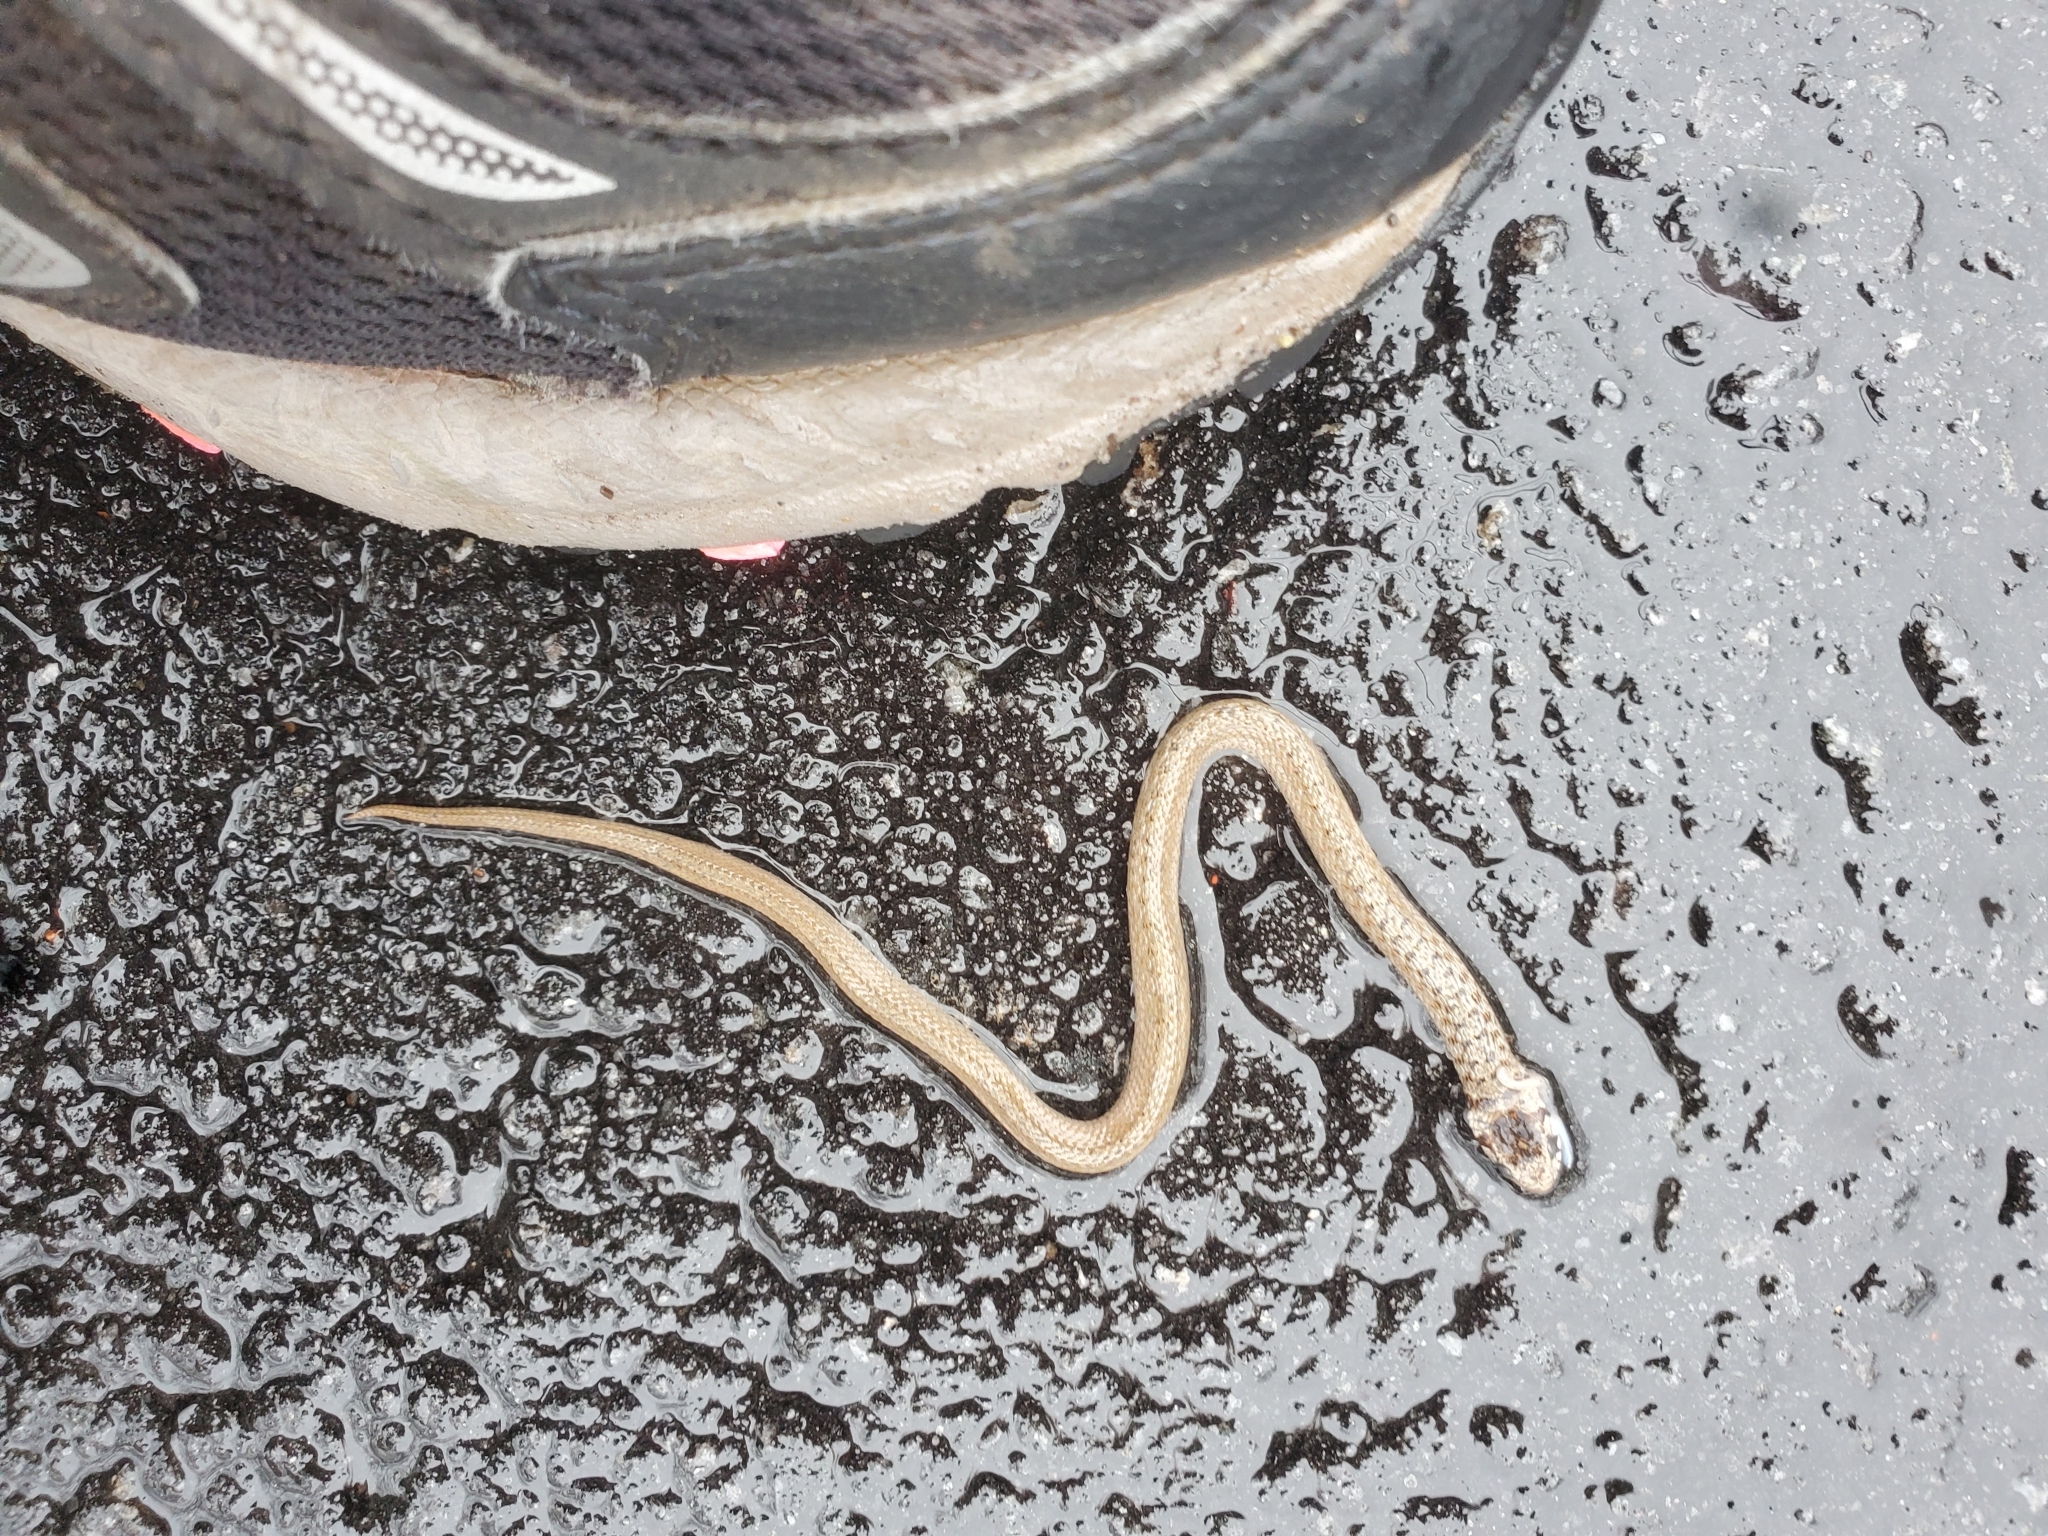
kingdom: Animalia
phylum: Chordata
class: Squamata
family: Colubridae
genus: Storeria
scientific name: Storeria dekayi
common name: (dekay’s) brown snake
